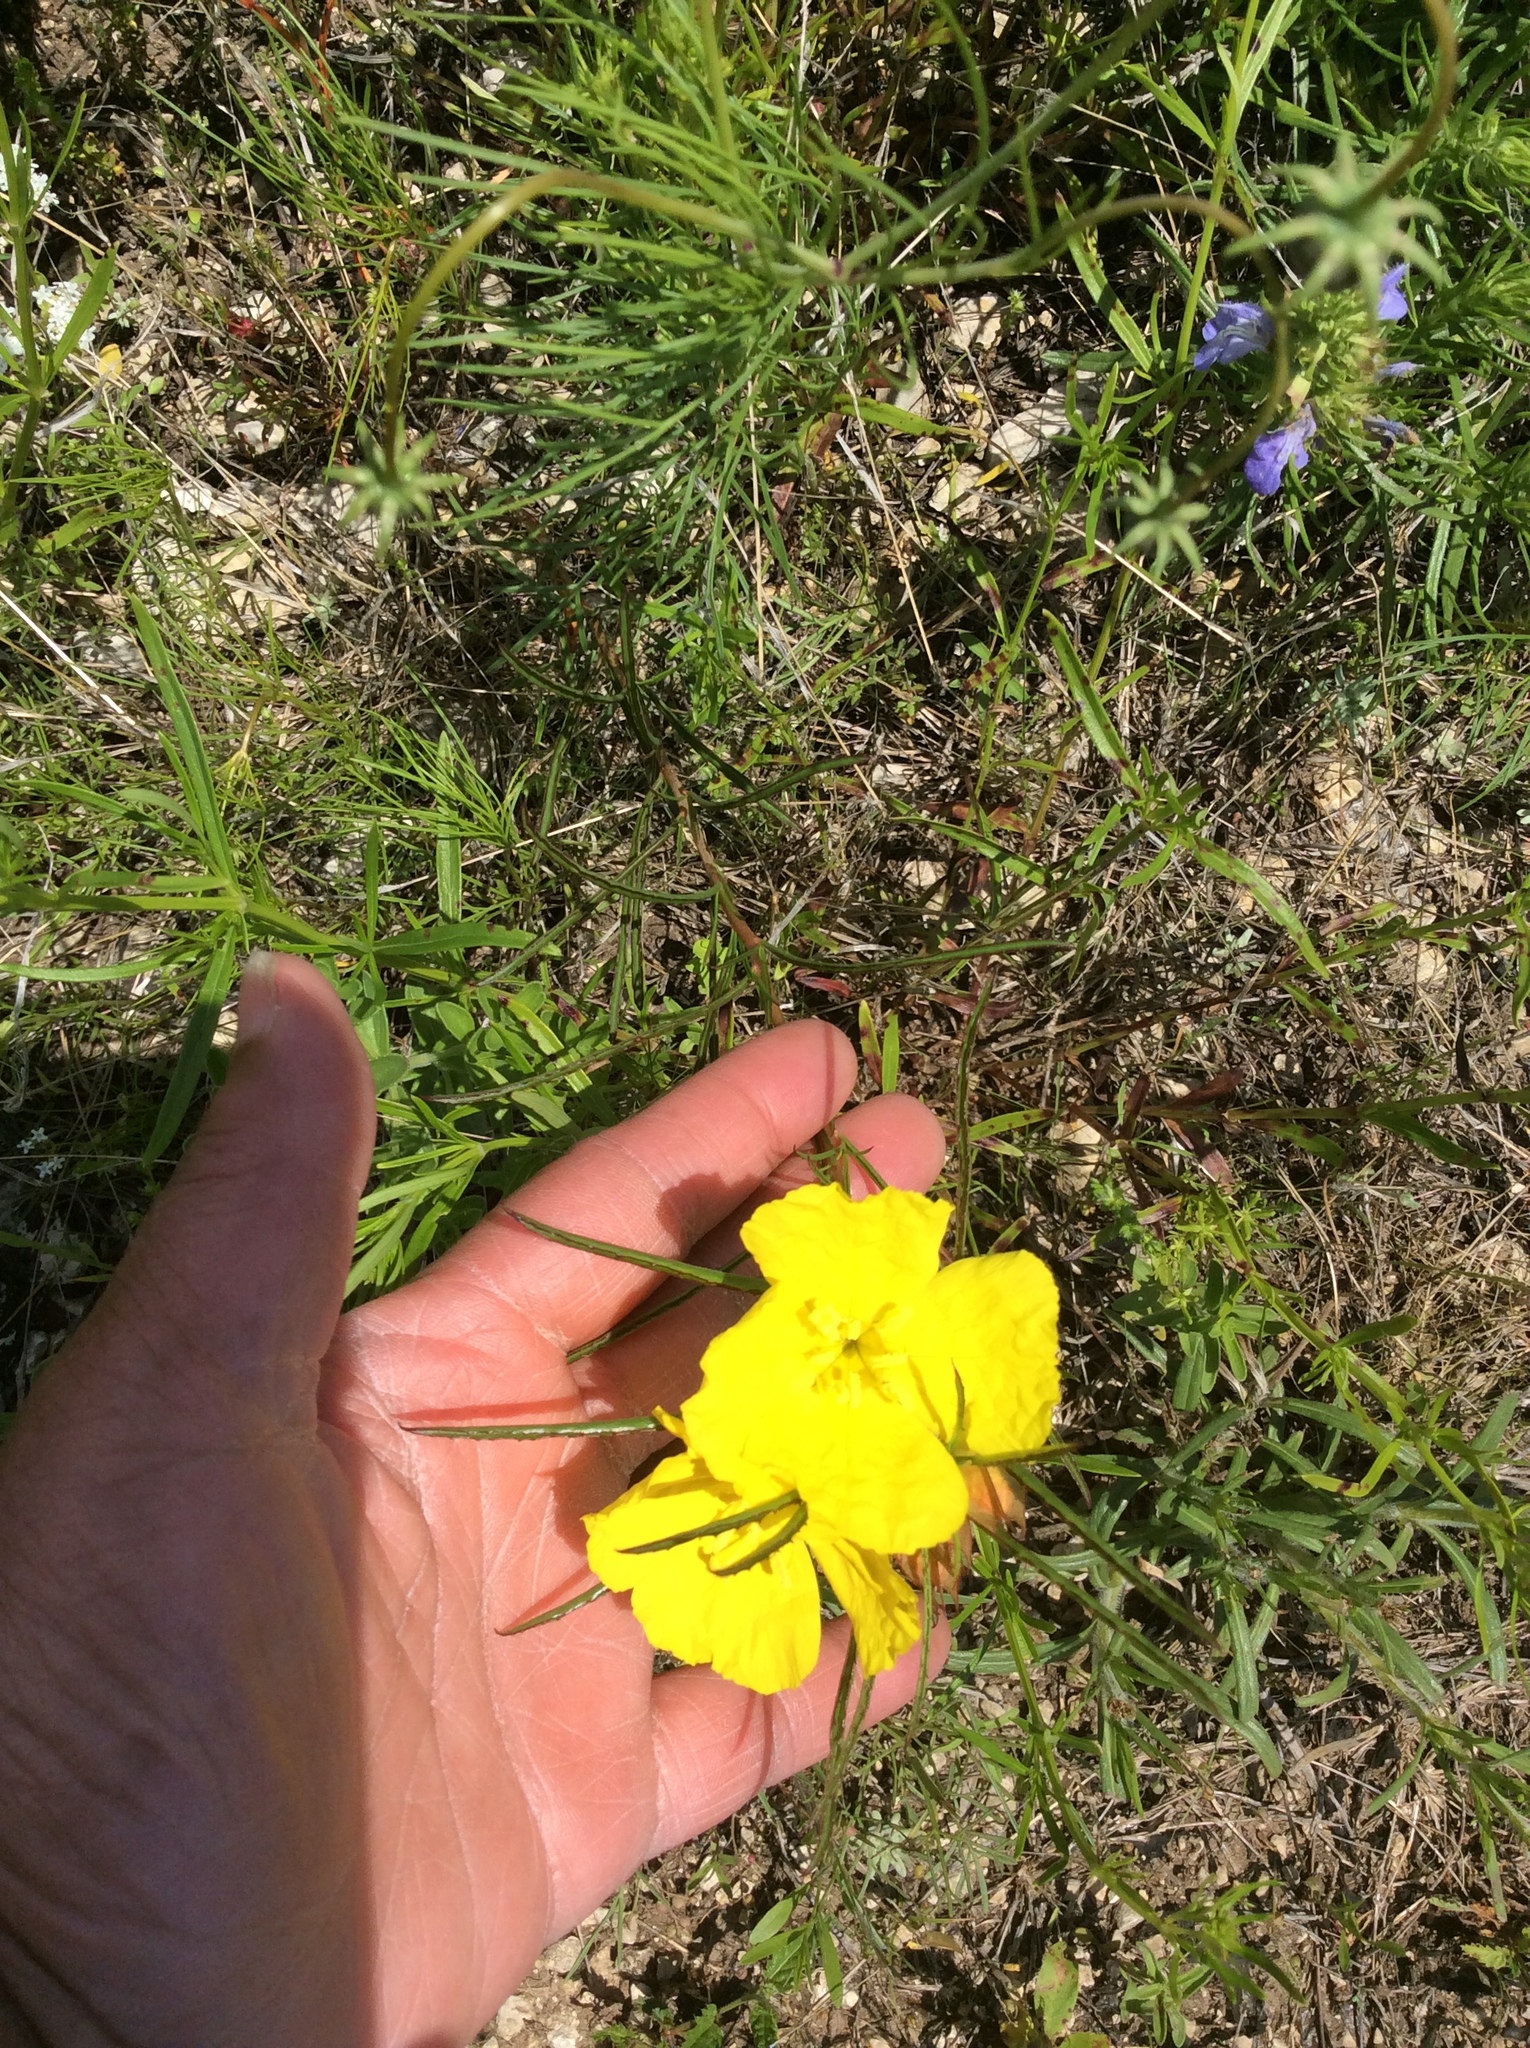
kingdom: Plantae
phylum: Tracheophyta
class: Magnoliopsida
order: Myrtales
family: Onagraceae
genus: Oenothera
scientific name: Oenothera
